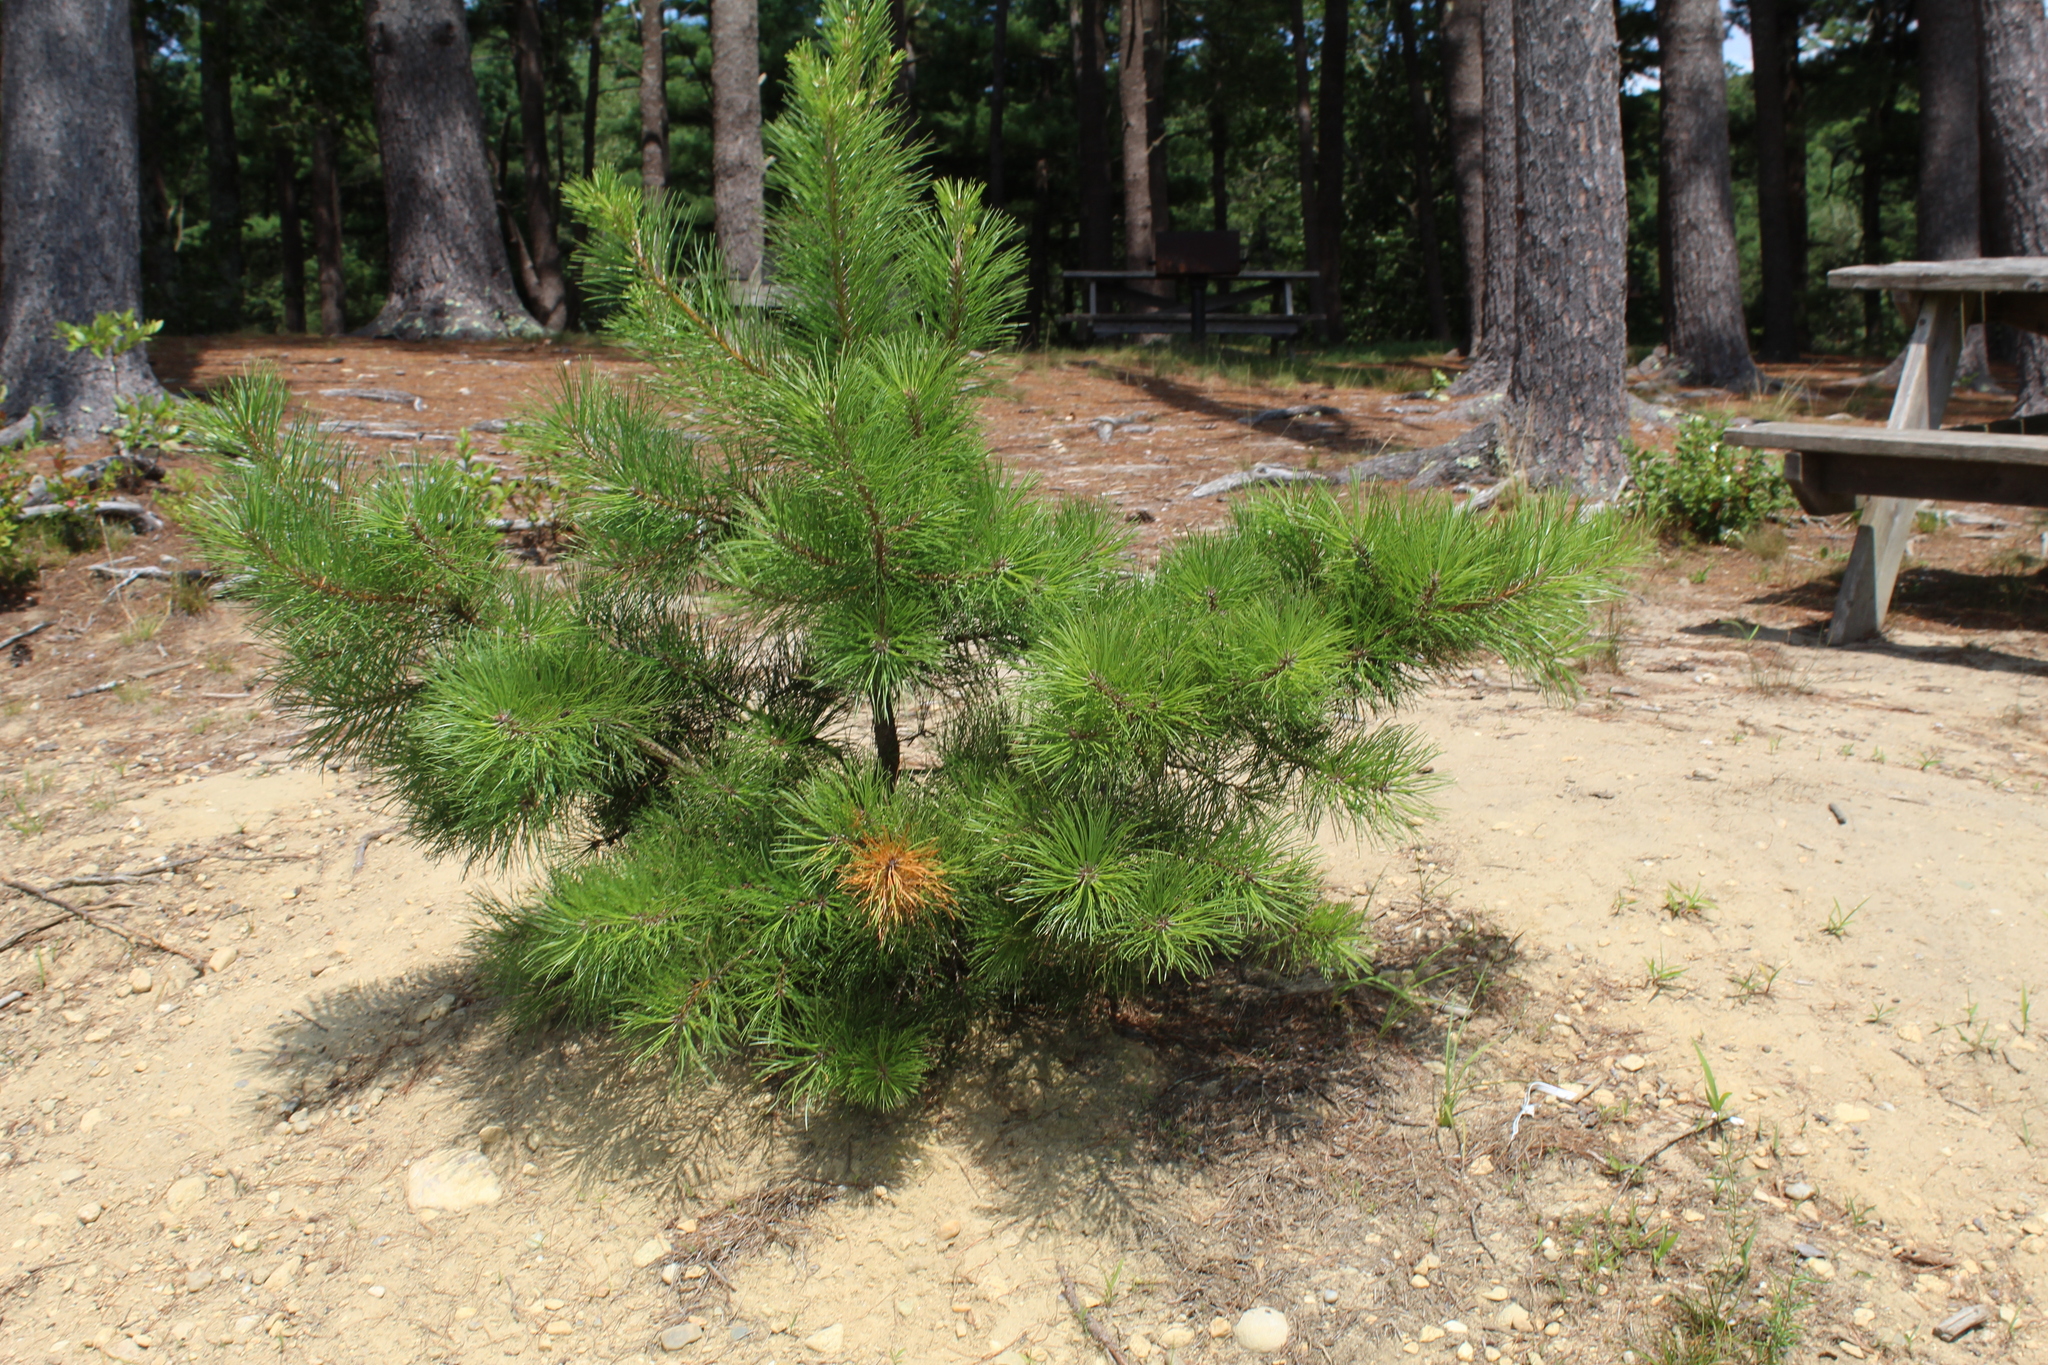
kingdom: Plantae
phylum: Tracheophyta
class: Pinopsida
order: Pinales
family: Pinaceae
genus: Pinus
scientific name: Pinus rigida
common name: Pitch pine
